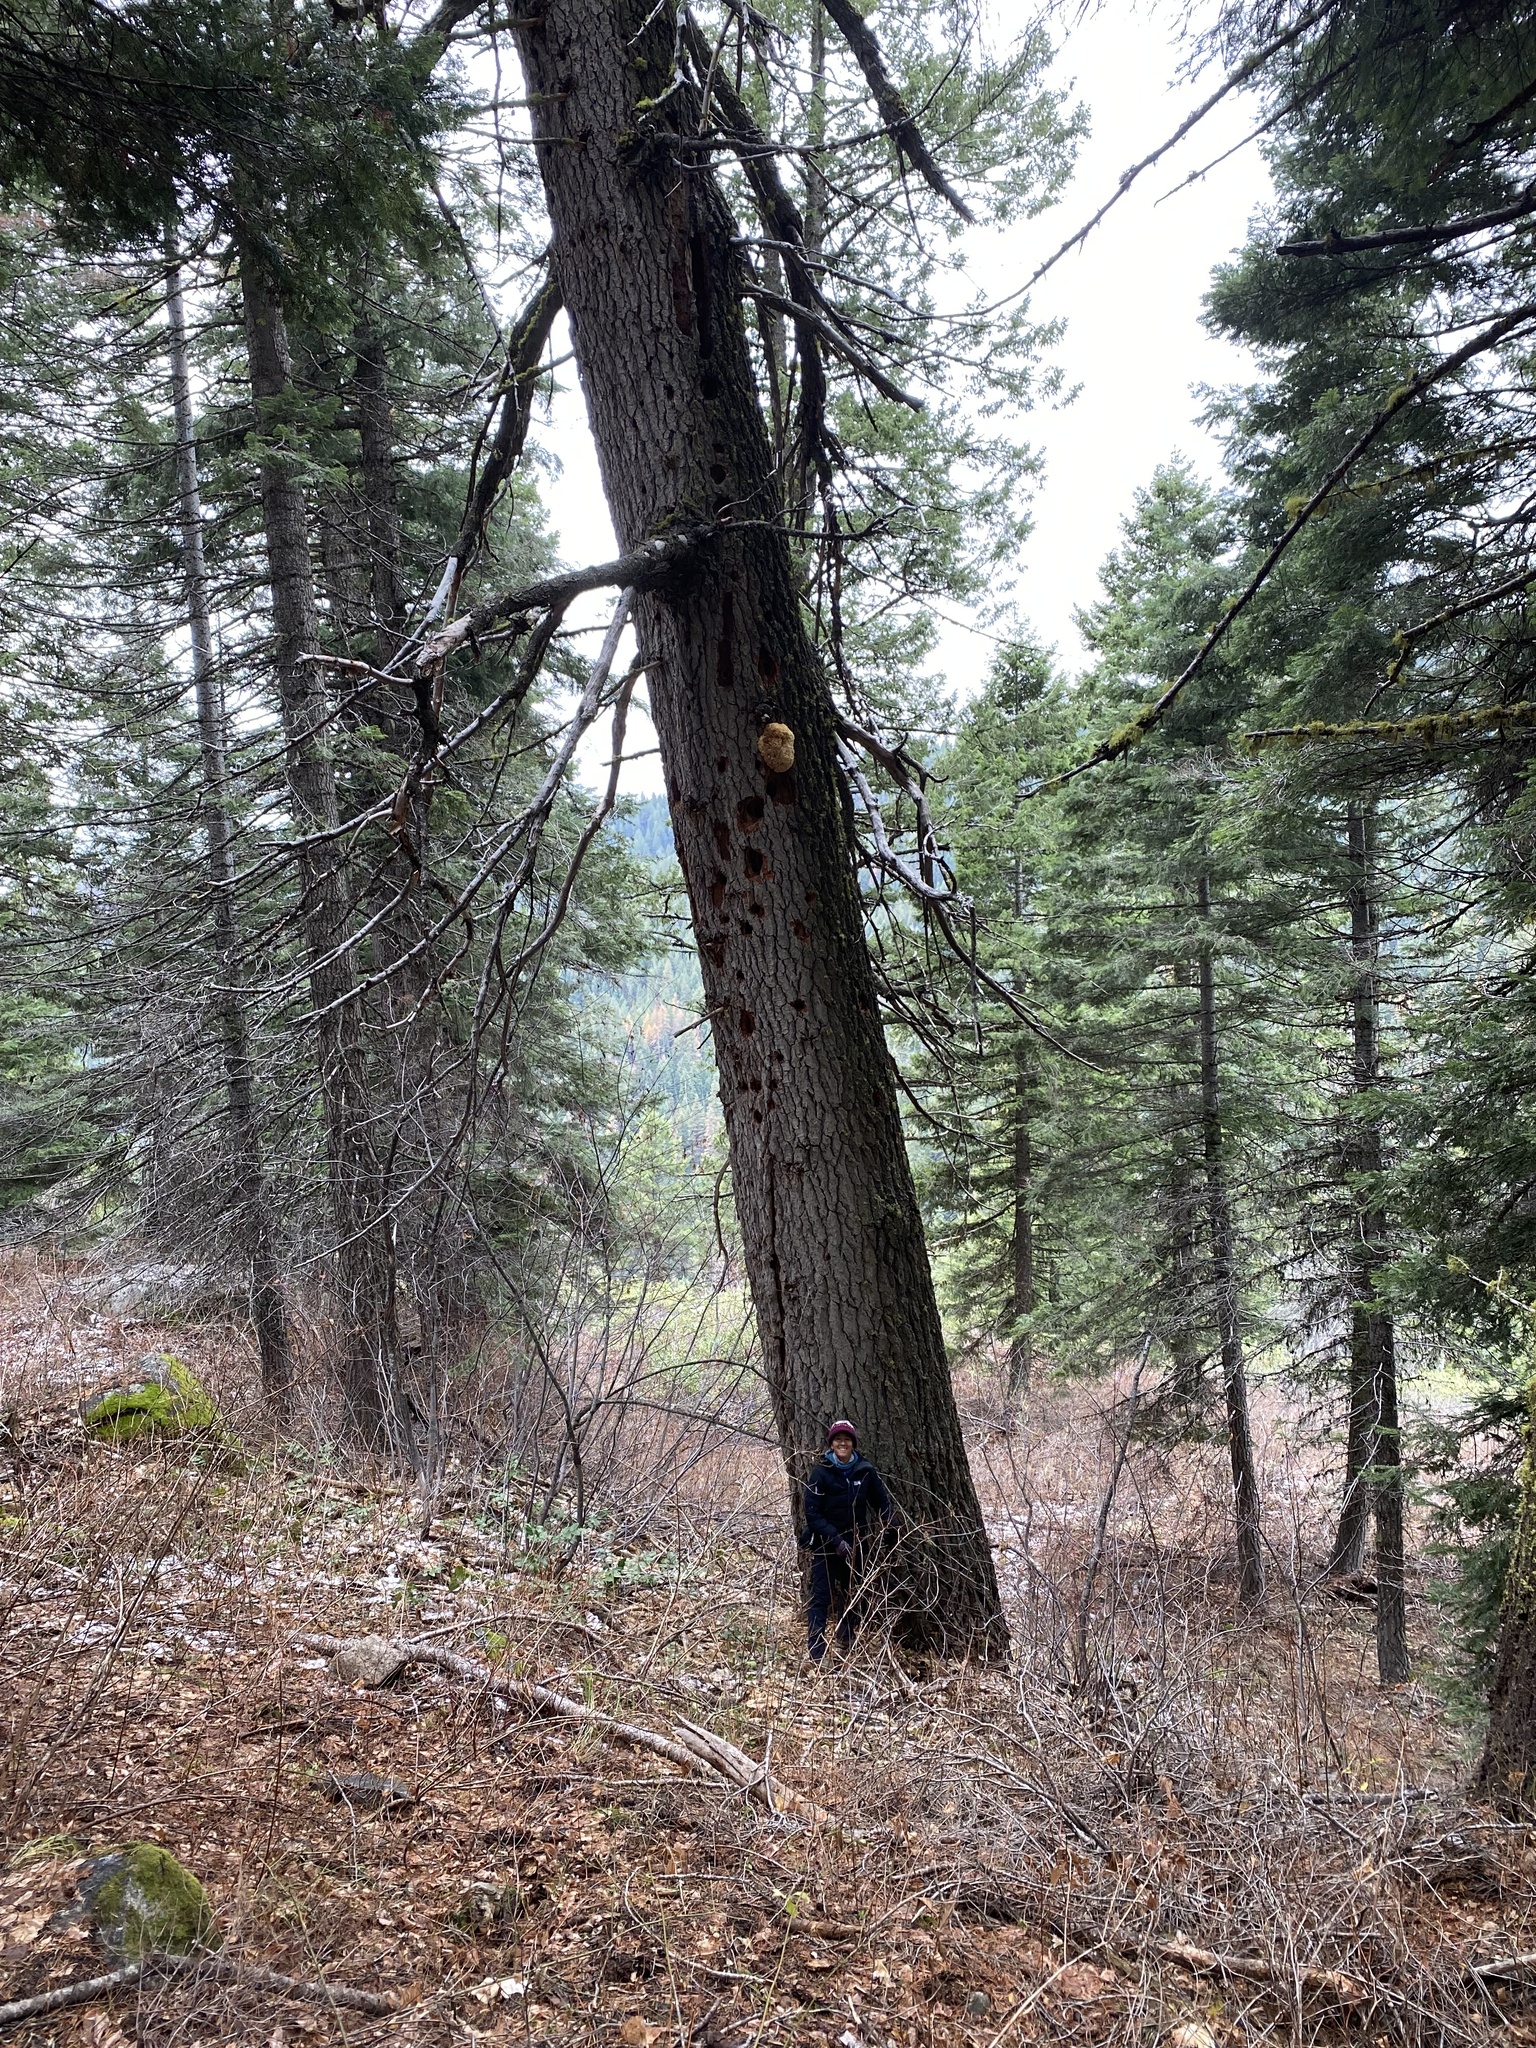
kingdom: Fungi
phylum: Basidiomycota
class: Agaricomycetes
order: Russulales
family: Hericiaceae
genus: Hericium
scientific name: Hericium abietis
